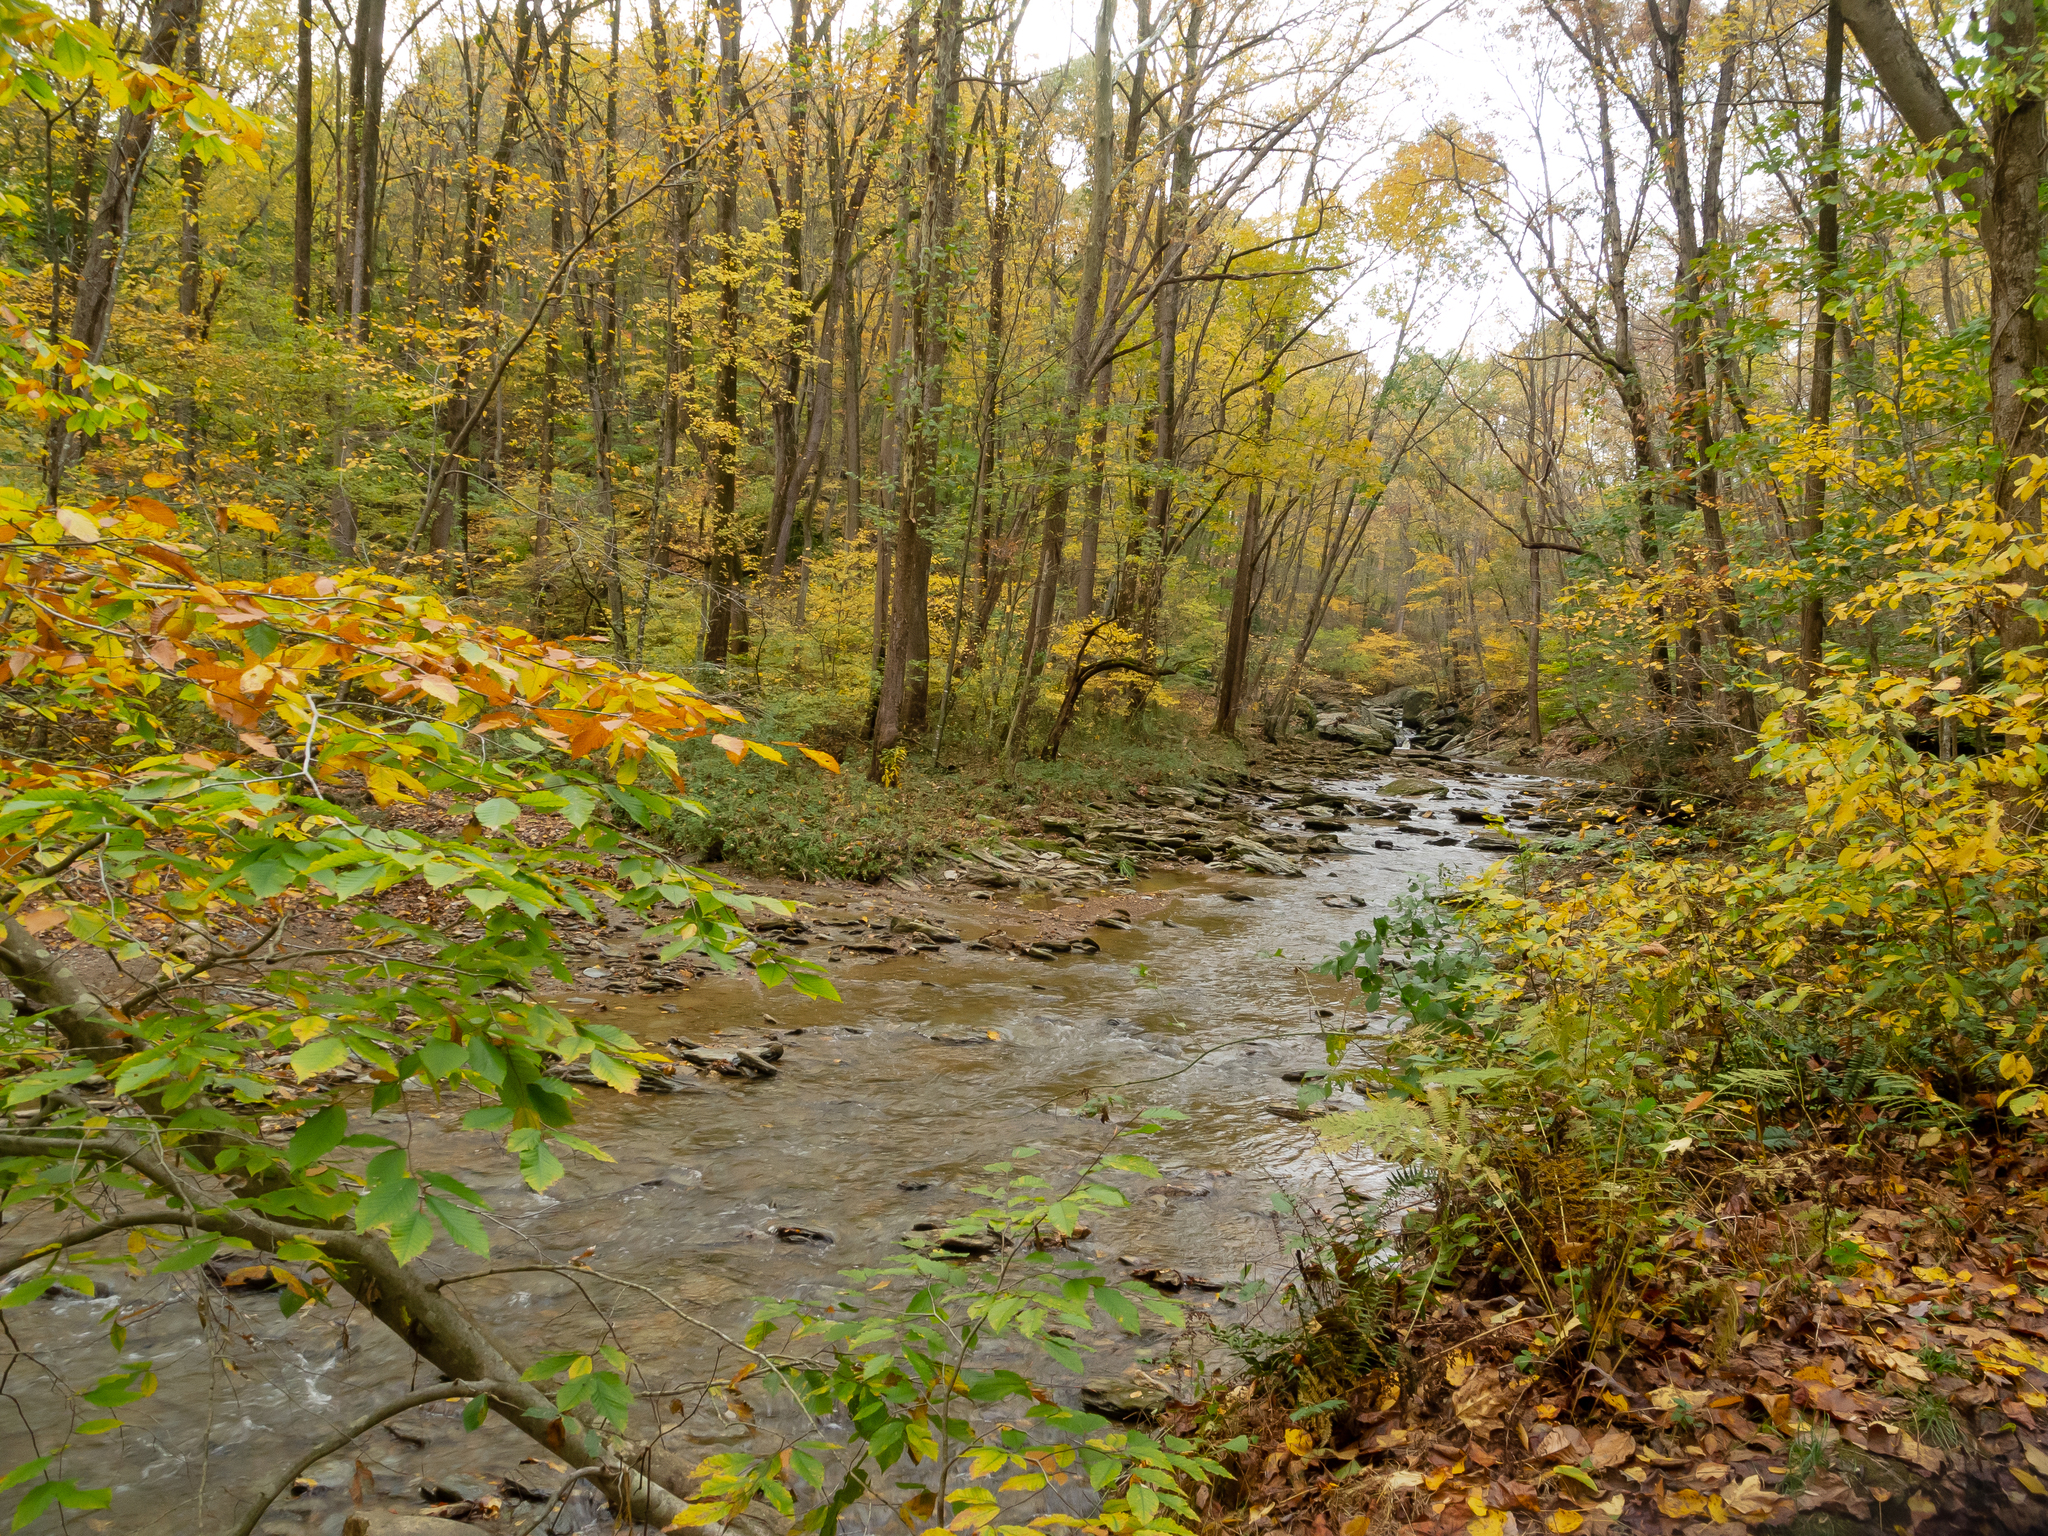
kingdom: Plantae
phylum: Tracheophyta
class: Magnoliopsida
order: Fagales
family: Fagaceae
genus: Fagus
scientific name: Fagus grandifolia
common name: American beech
